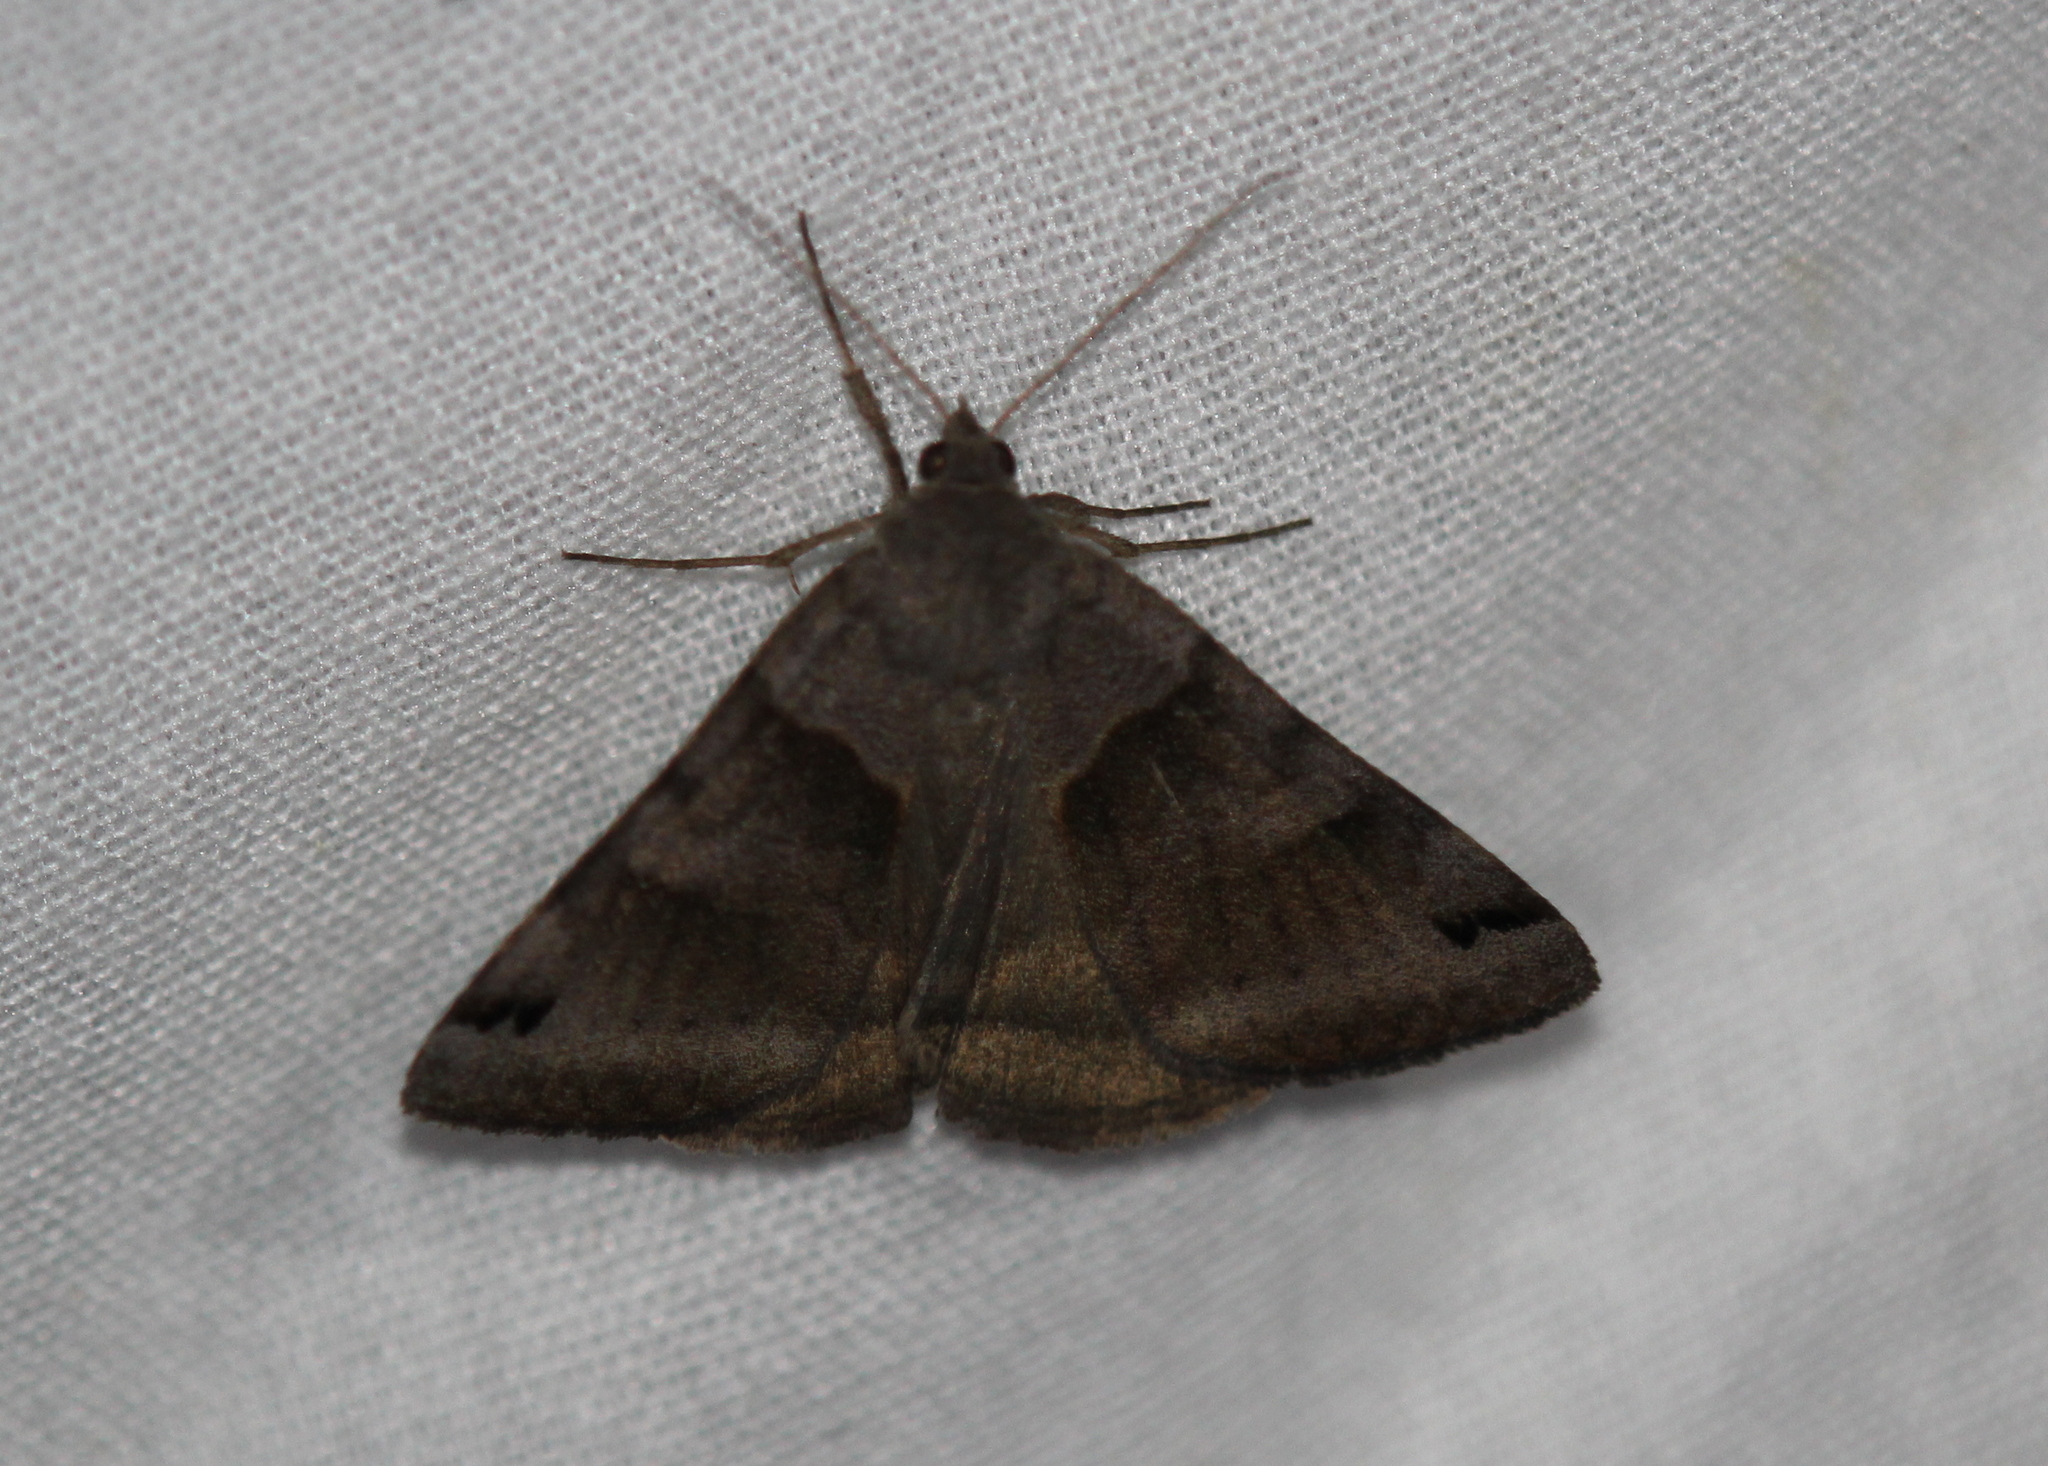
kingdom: Animalia
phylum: Arthropoda
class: Insecta
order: Lepidoptera
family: Erebidae
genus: Caenurgina
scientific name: Caenurgina crassiuscula
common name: Double-barred
